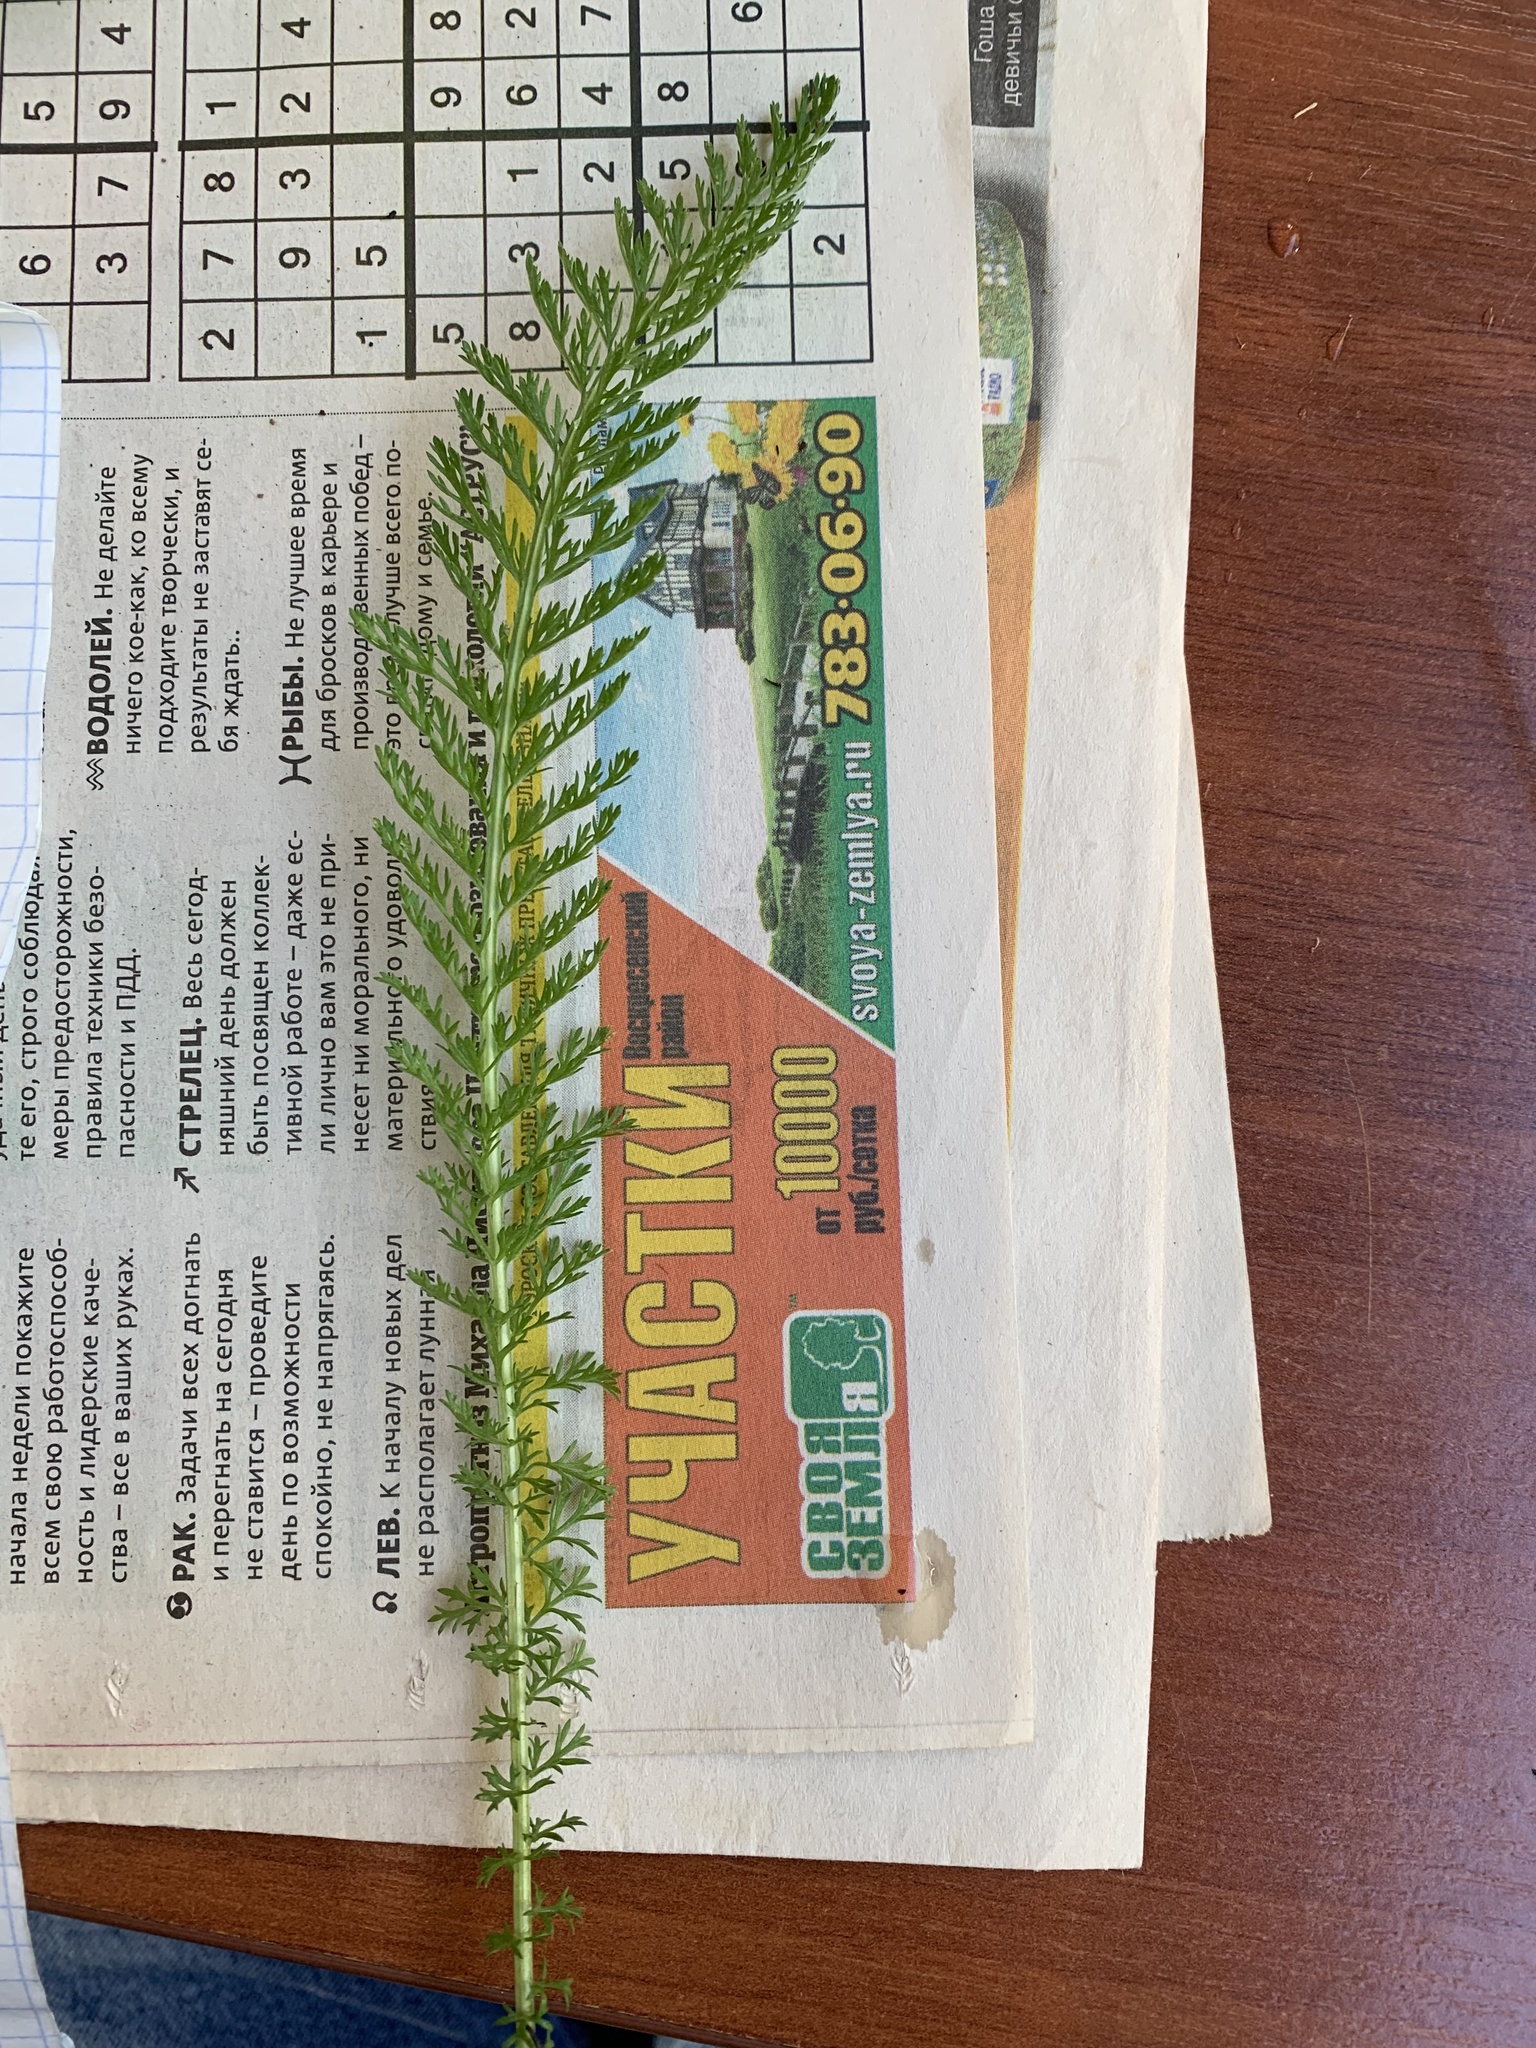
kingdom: Plantae
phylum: Tracheophyta
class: Magnoliopsida
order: Asterales
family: Asteraceae
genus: Achillea
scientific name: Achillea millefolium
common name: Yarrow
